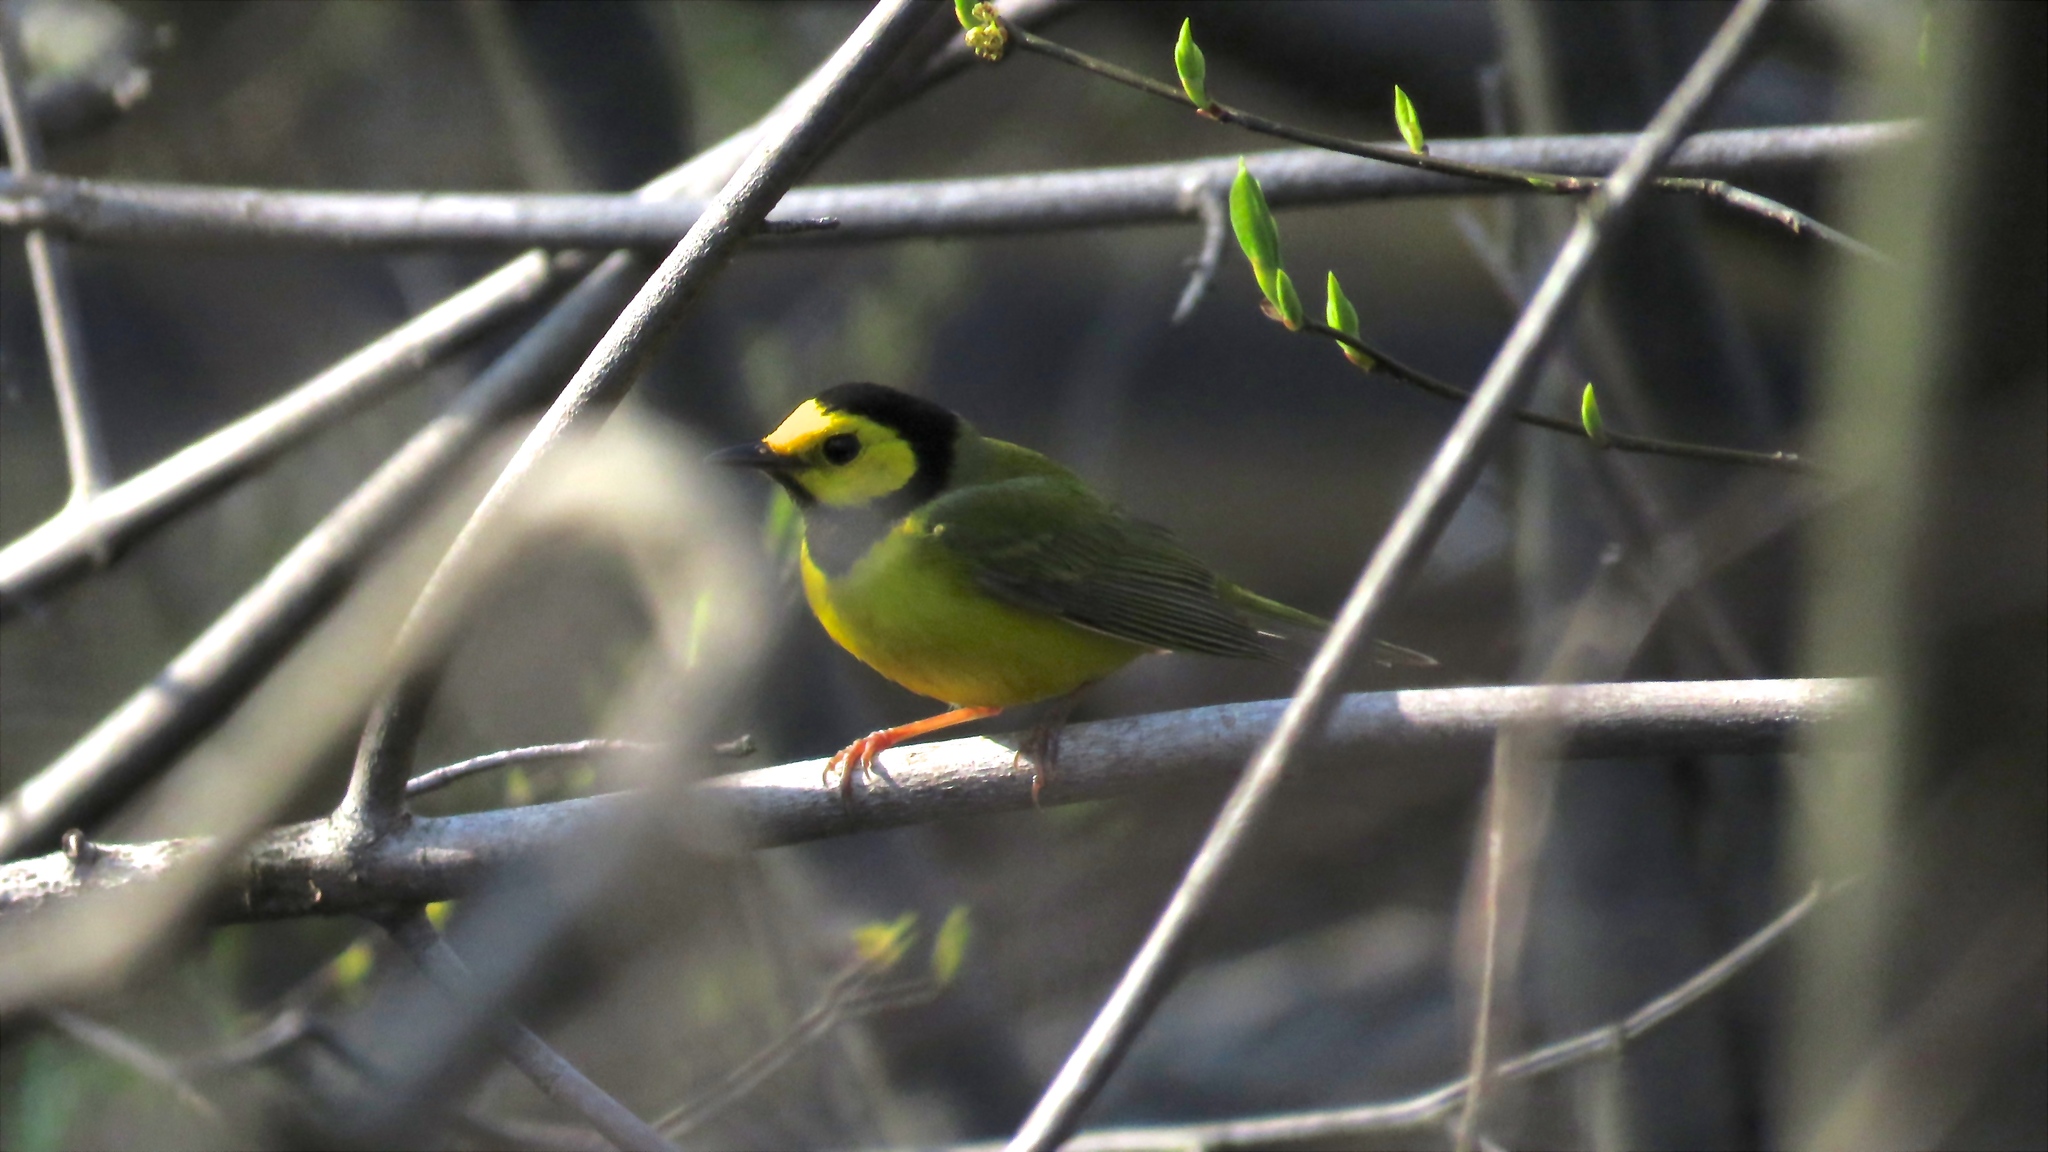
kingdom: Animalia
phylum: Chordata
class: Aves
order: Passeriformes
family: Parulidae
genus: Setophaga
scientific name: Setophaga citrina
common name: Hooded warbler
